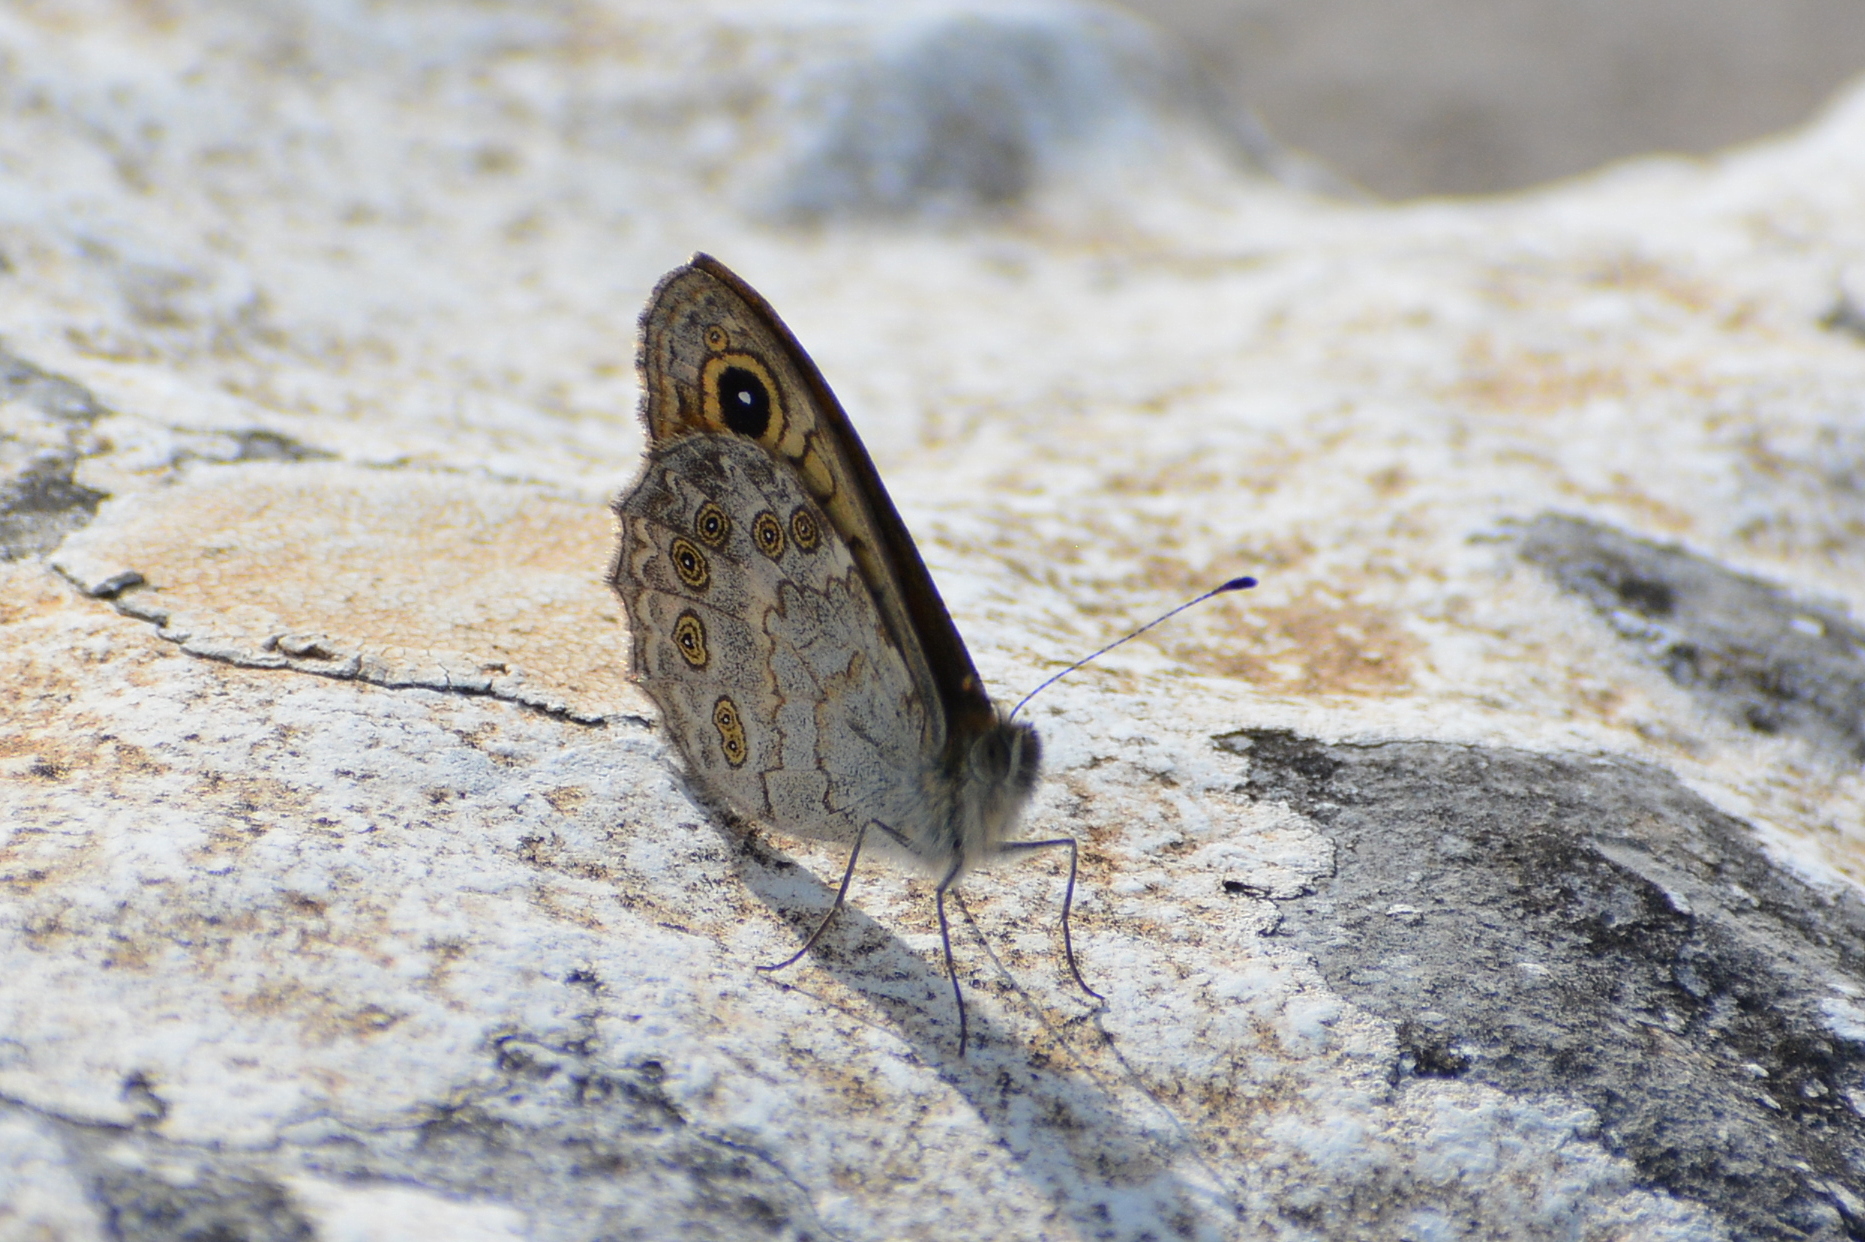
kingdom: Animalia
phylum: Arthropoda
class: Insecta
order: Lepidoptera
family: Nymphalidae
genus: Pararge
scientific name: Pararge Lasiommata maera
